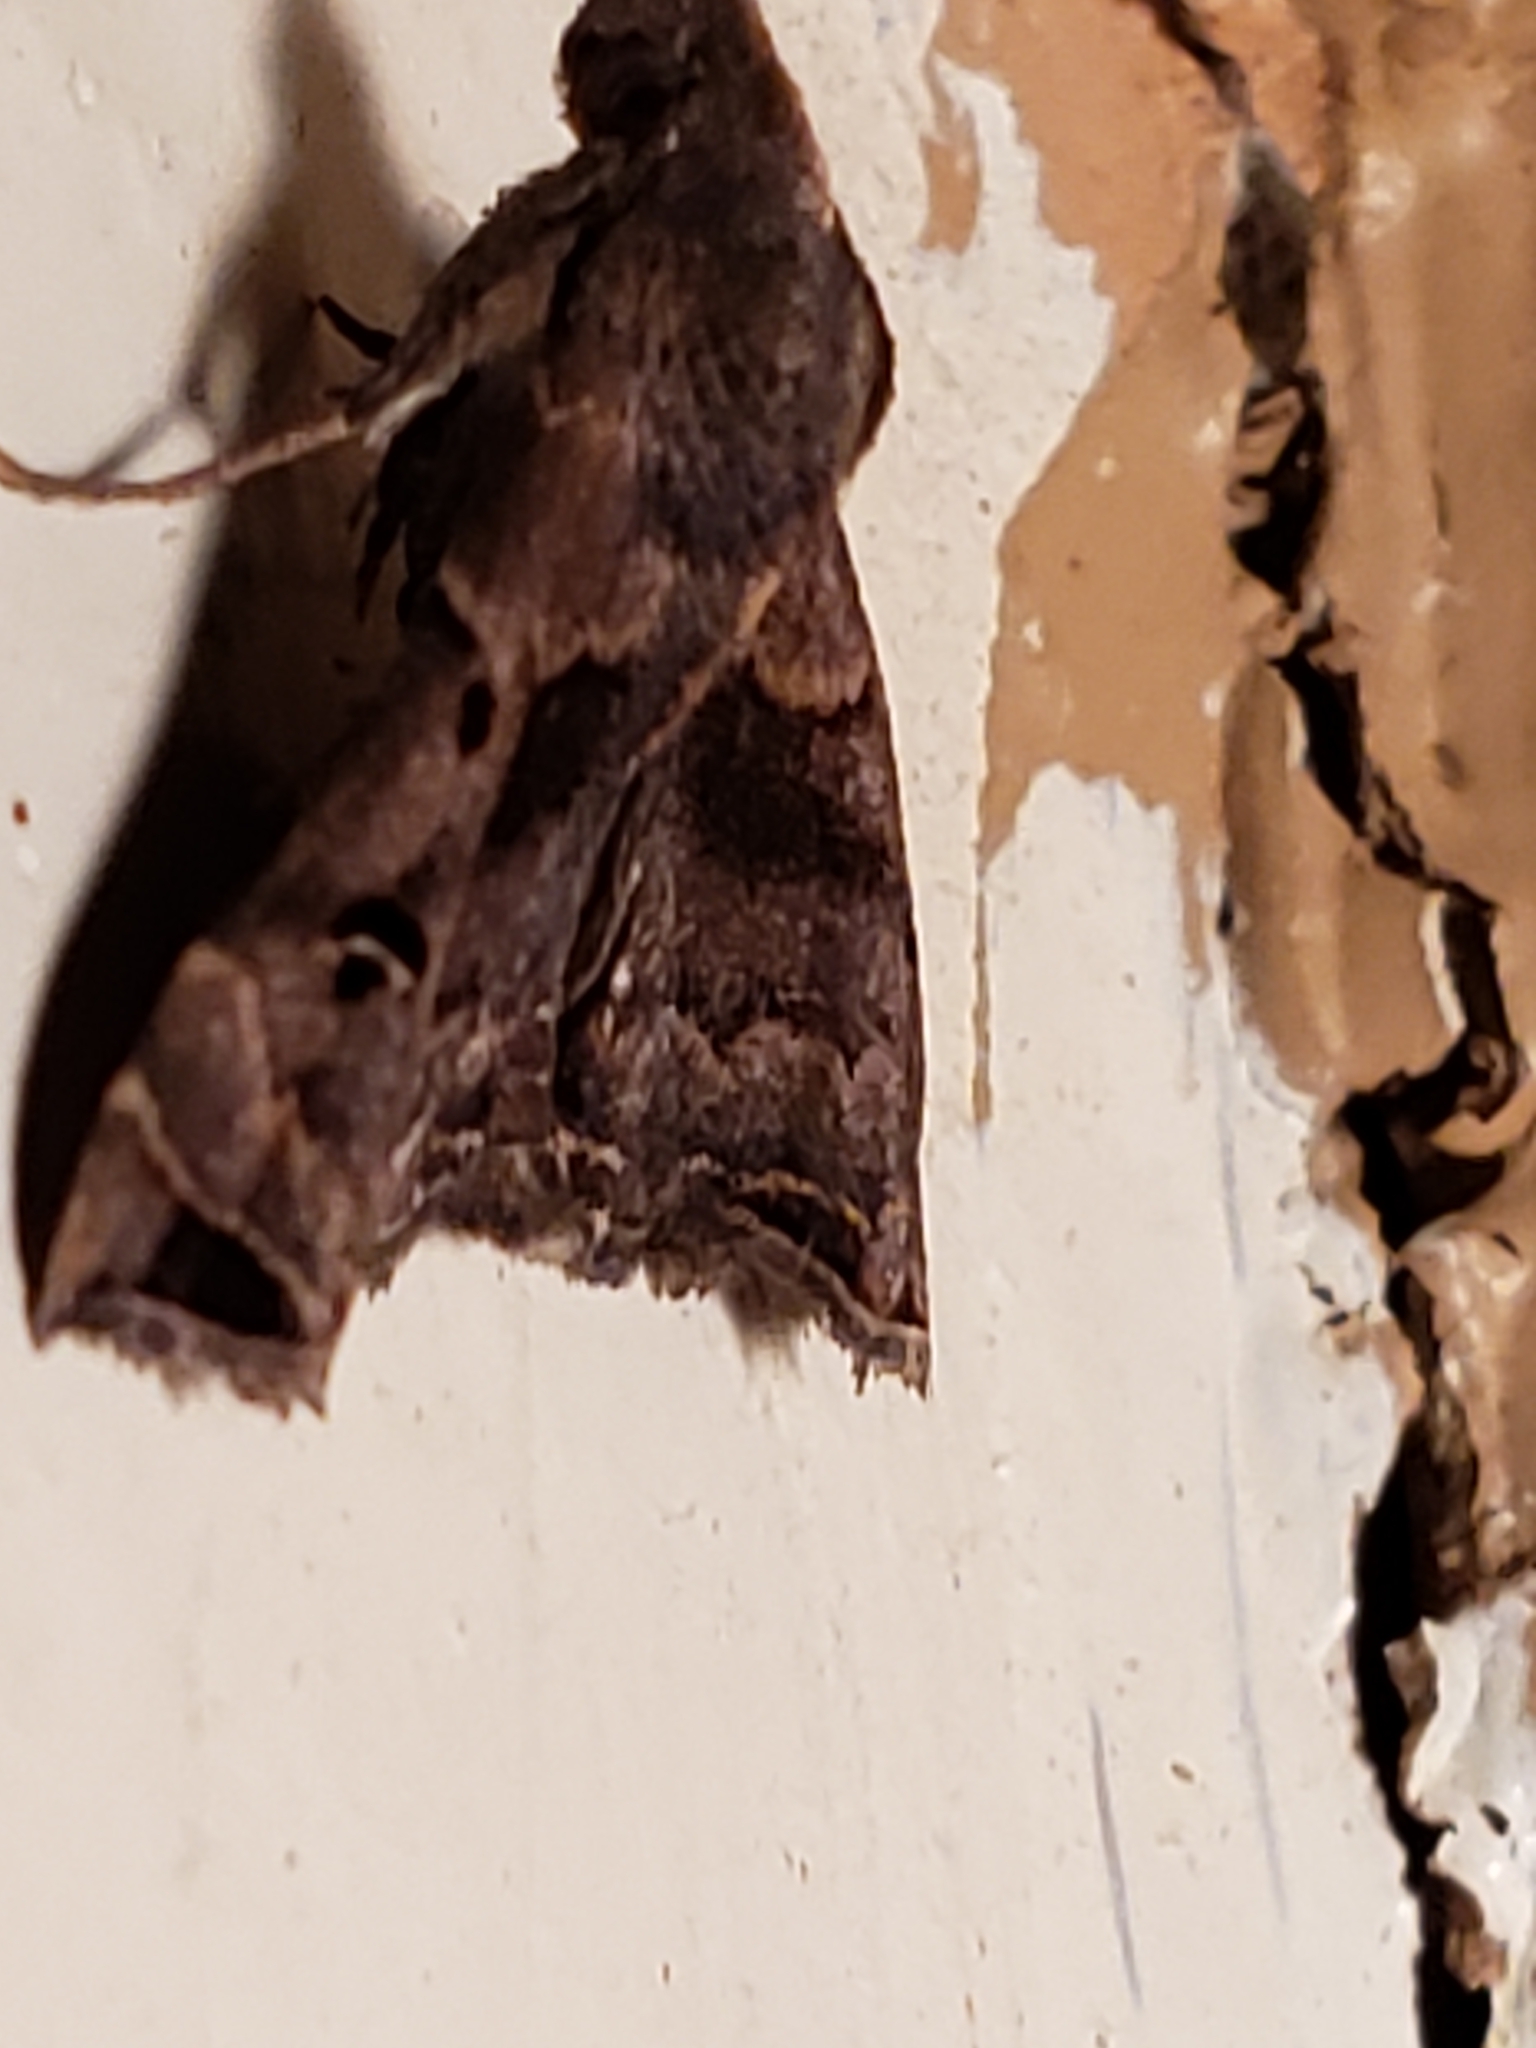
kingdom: Animalia
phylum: Arthropoda
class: Insecta
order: Lepidoptera
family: Erebidae
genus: Palthis
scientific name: Palthis asopialis
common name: Faint-spotted palthis moth
